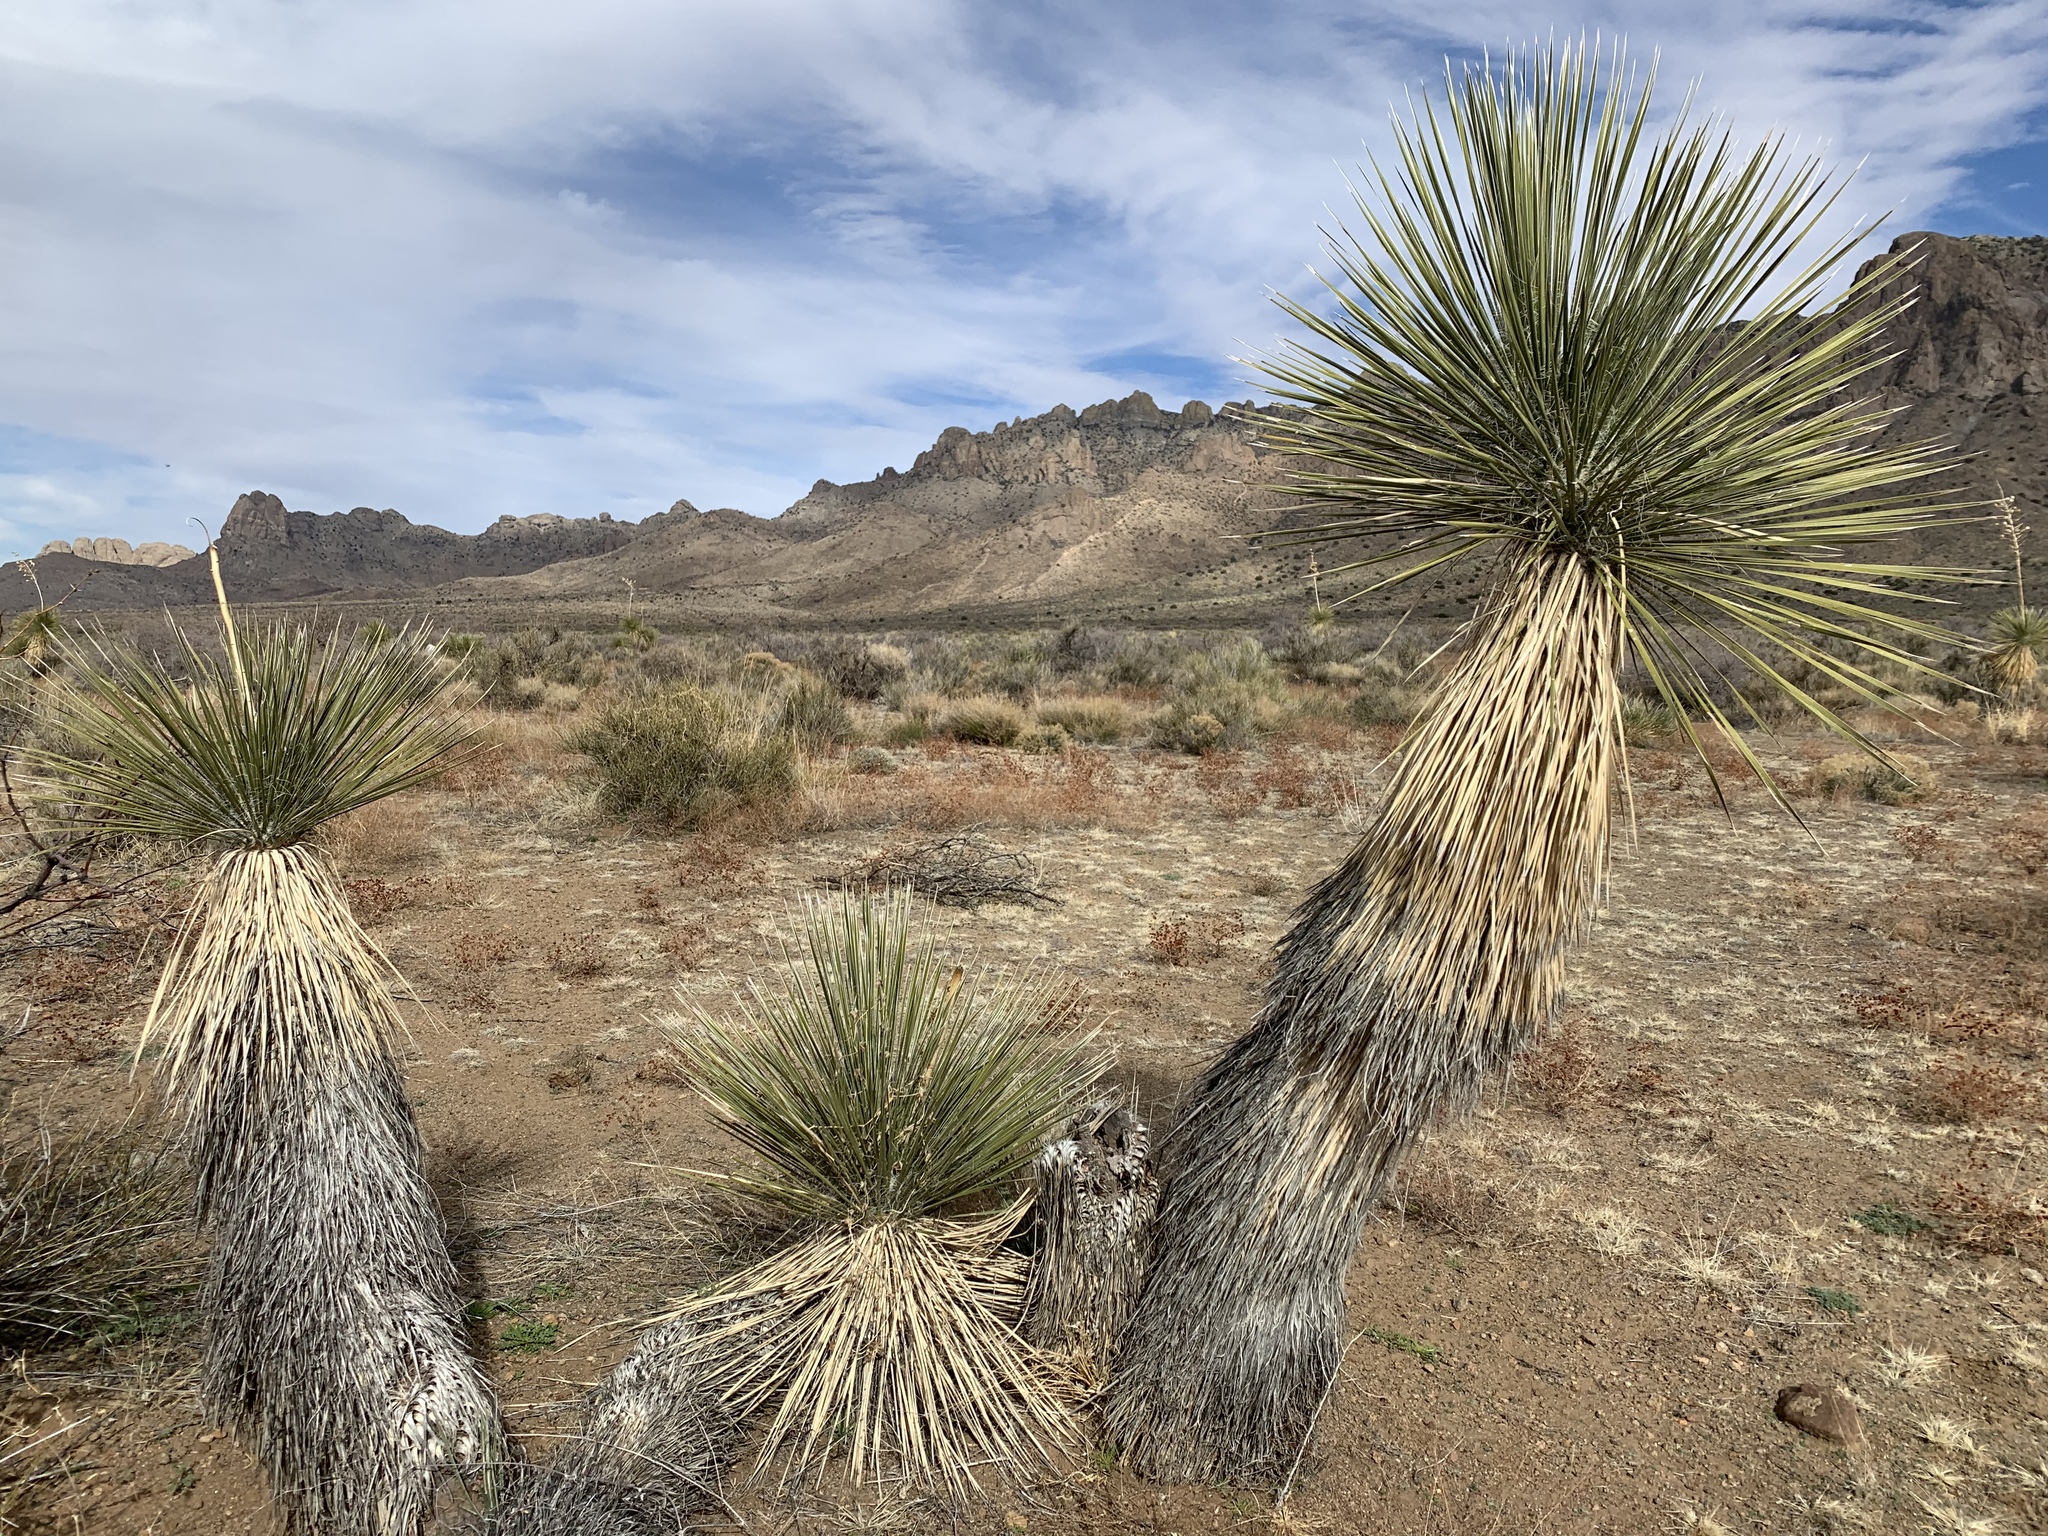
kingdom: Plantae
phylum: Tracheophyta
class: Liliopsida
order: Asparagales
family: Asparagaceae
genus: Yucca
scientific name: Yucca elata
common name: Palmella
